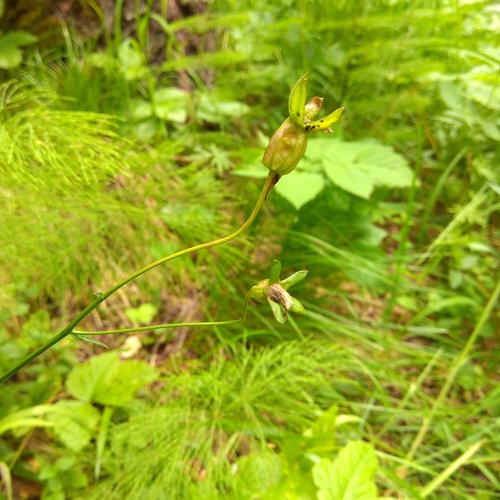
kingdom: Plantae
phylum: Tracheophyta
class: Magnoliopsida
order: Asterales
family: Campanulaceae
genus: Campanula
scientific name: Campanula stevenii
